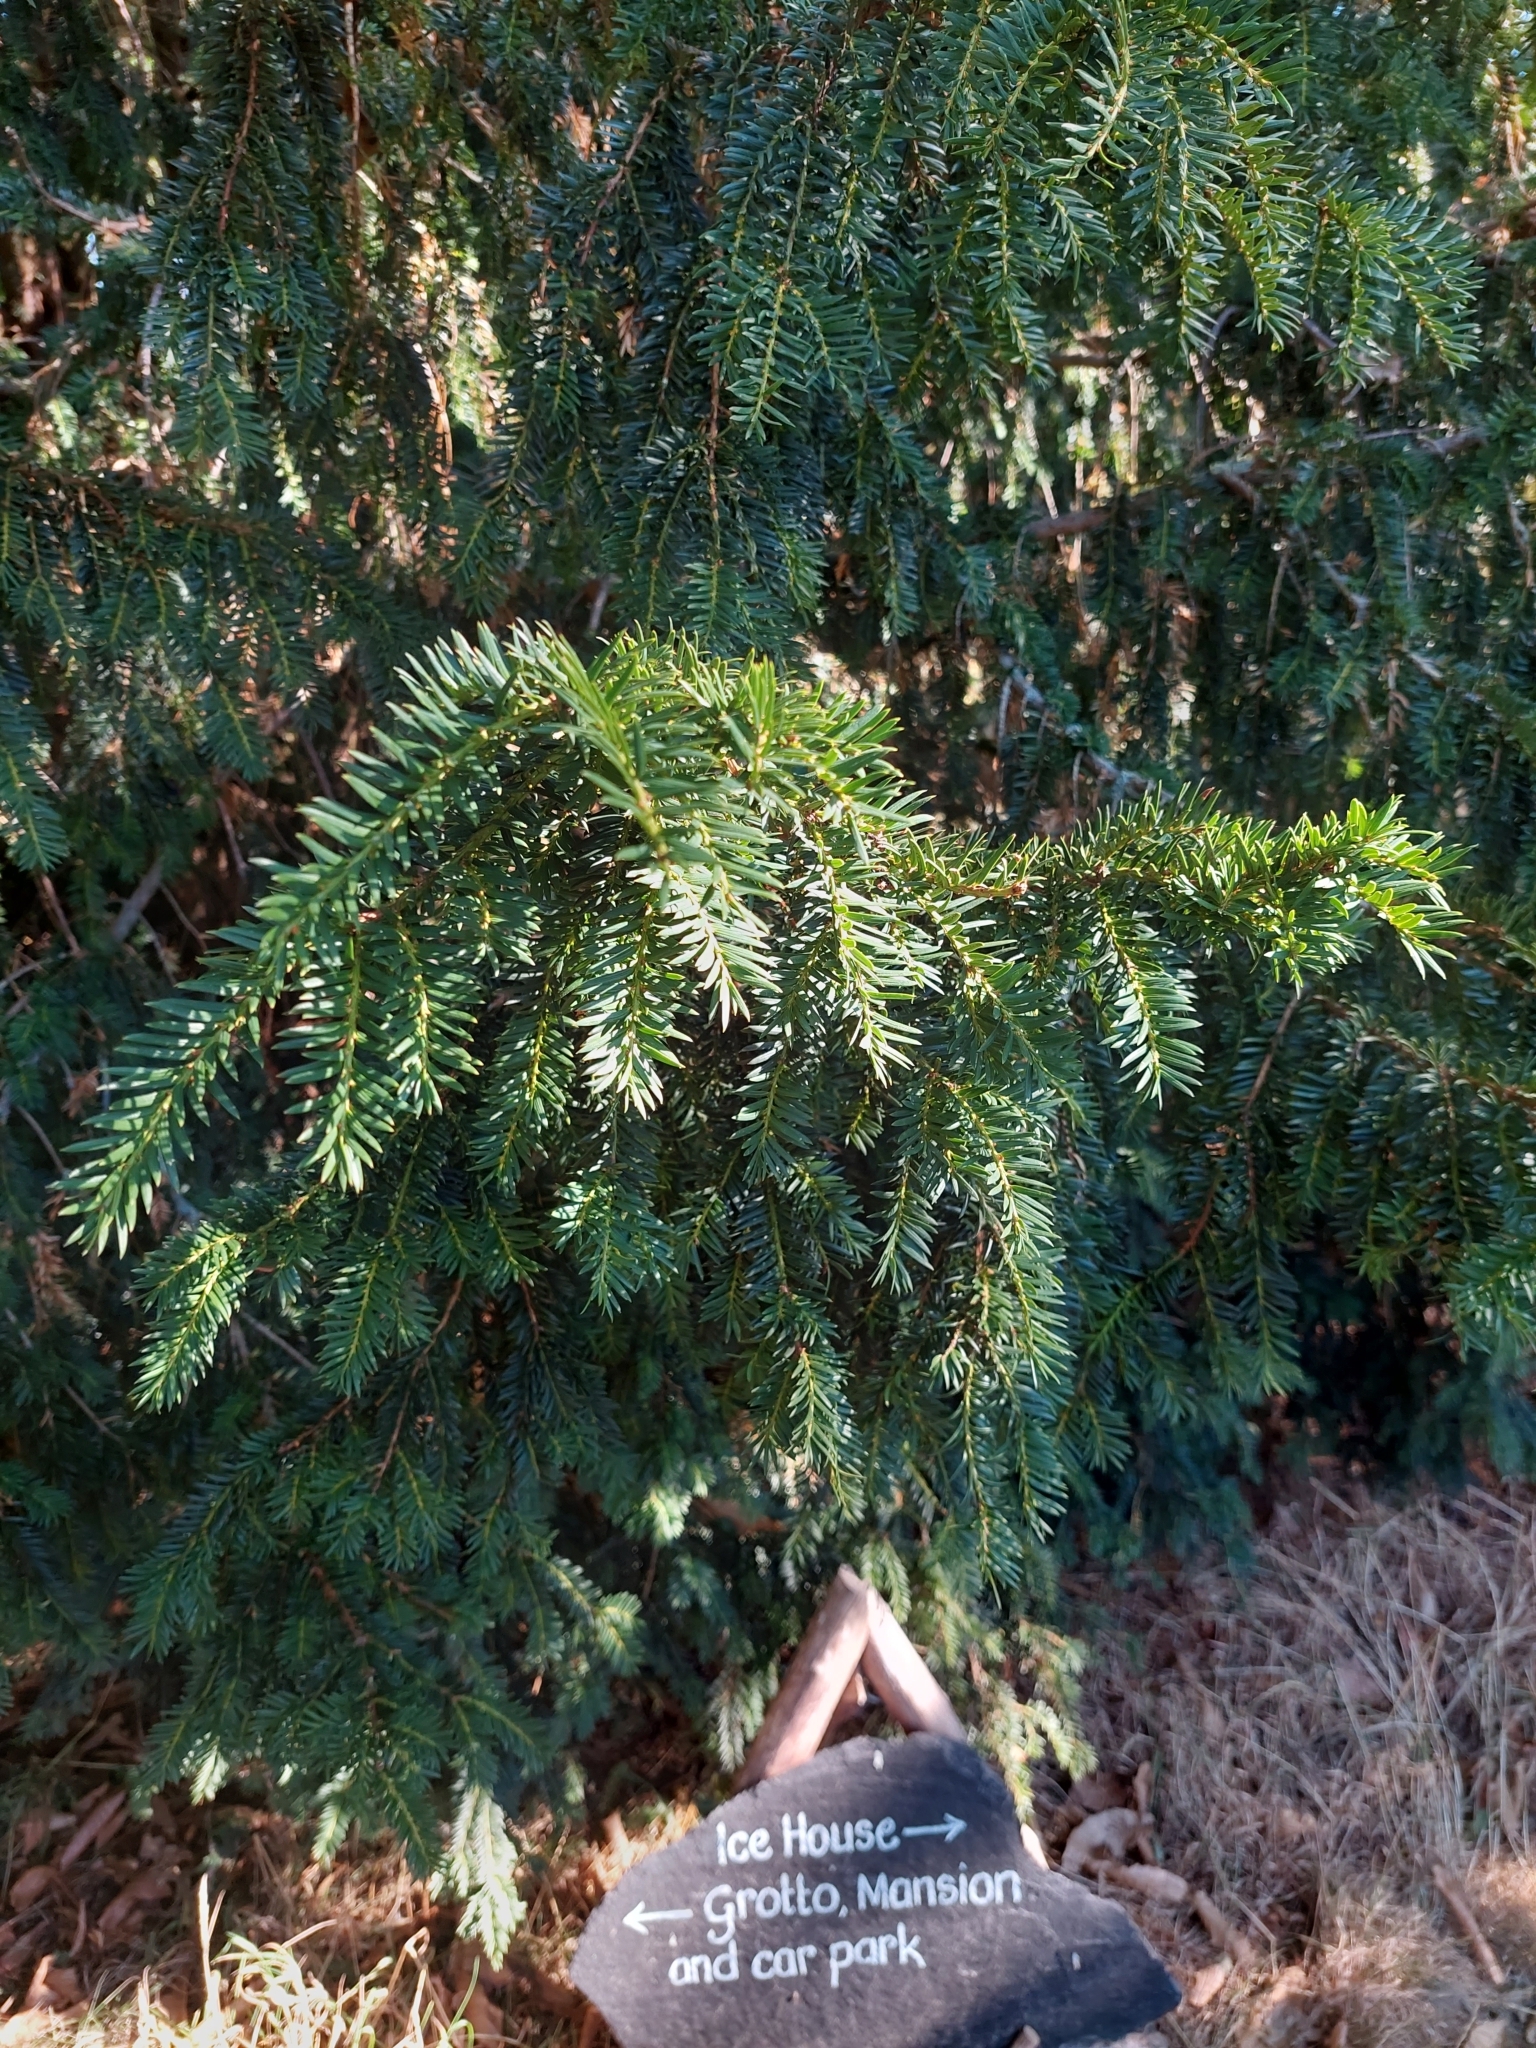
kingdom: Plantae
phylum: Tracheophyta
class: Pinopsida
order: Pinales
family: Taxaceae
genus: Taxus
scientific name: Taxus baccata
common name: Yew
